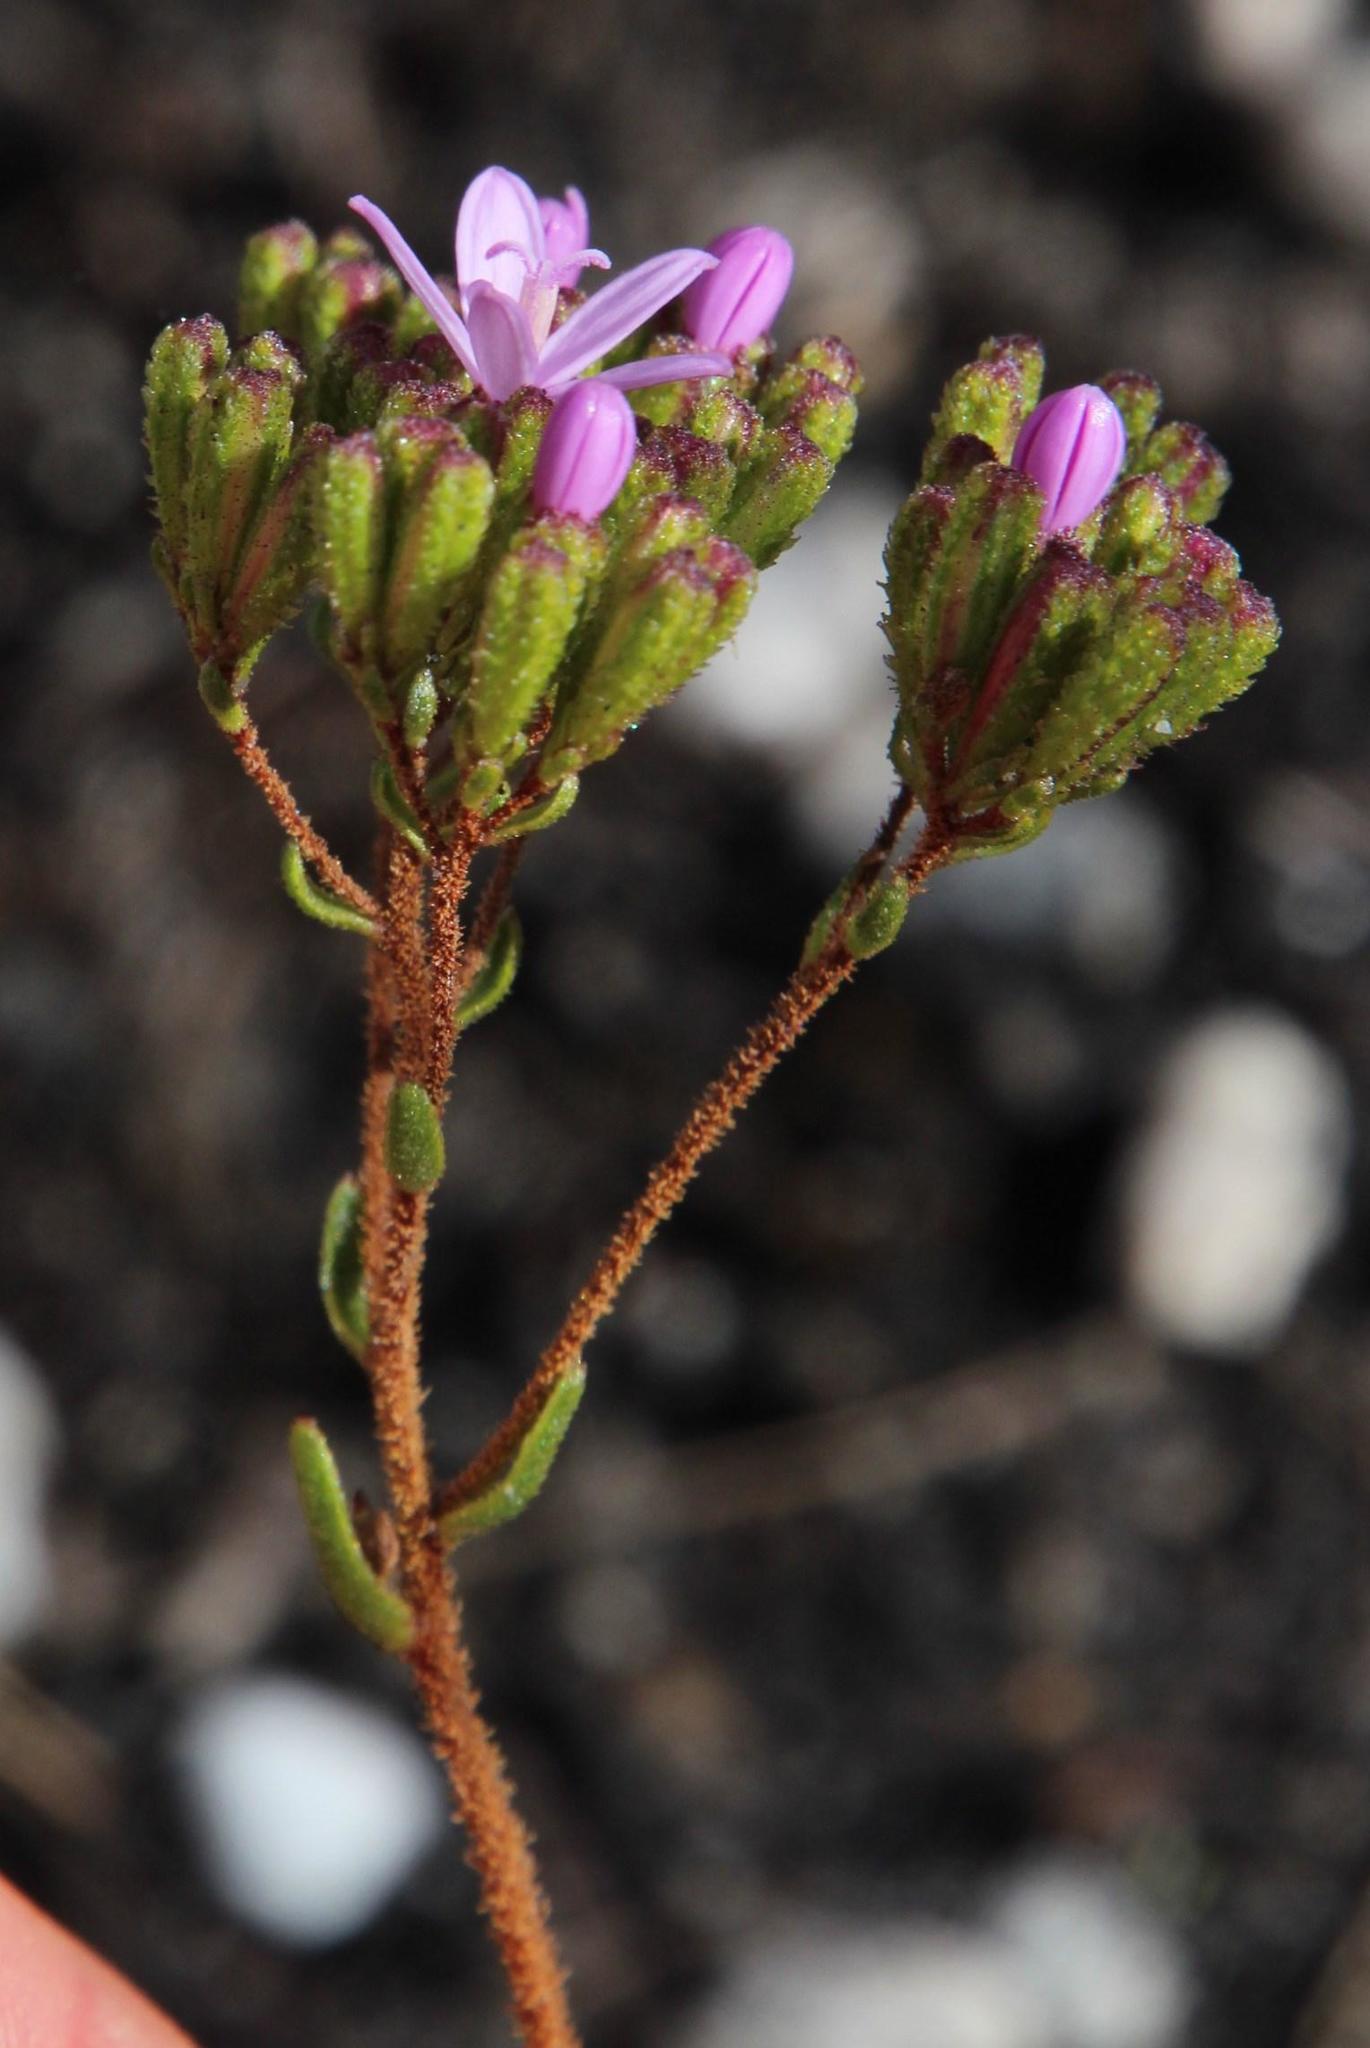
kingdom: Plantae
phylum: Tracheophyta
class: Magnoliopsida
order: Asterales
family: Asteraceae
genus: Corymbium
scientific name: Corymbium africanum
